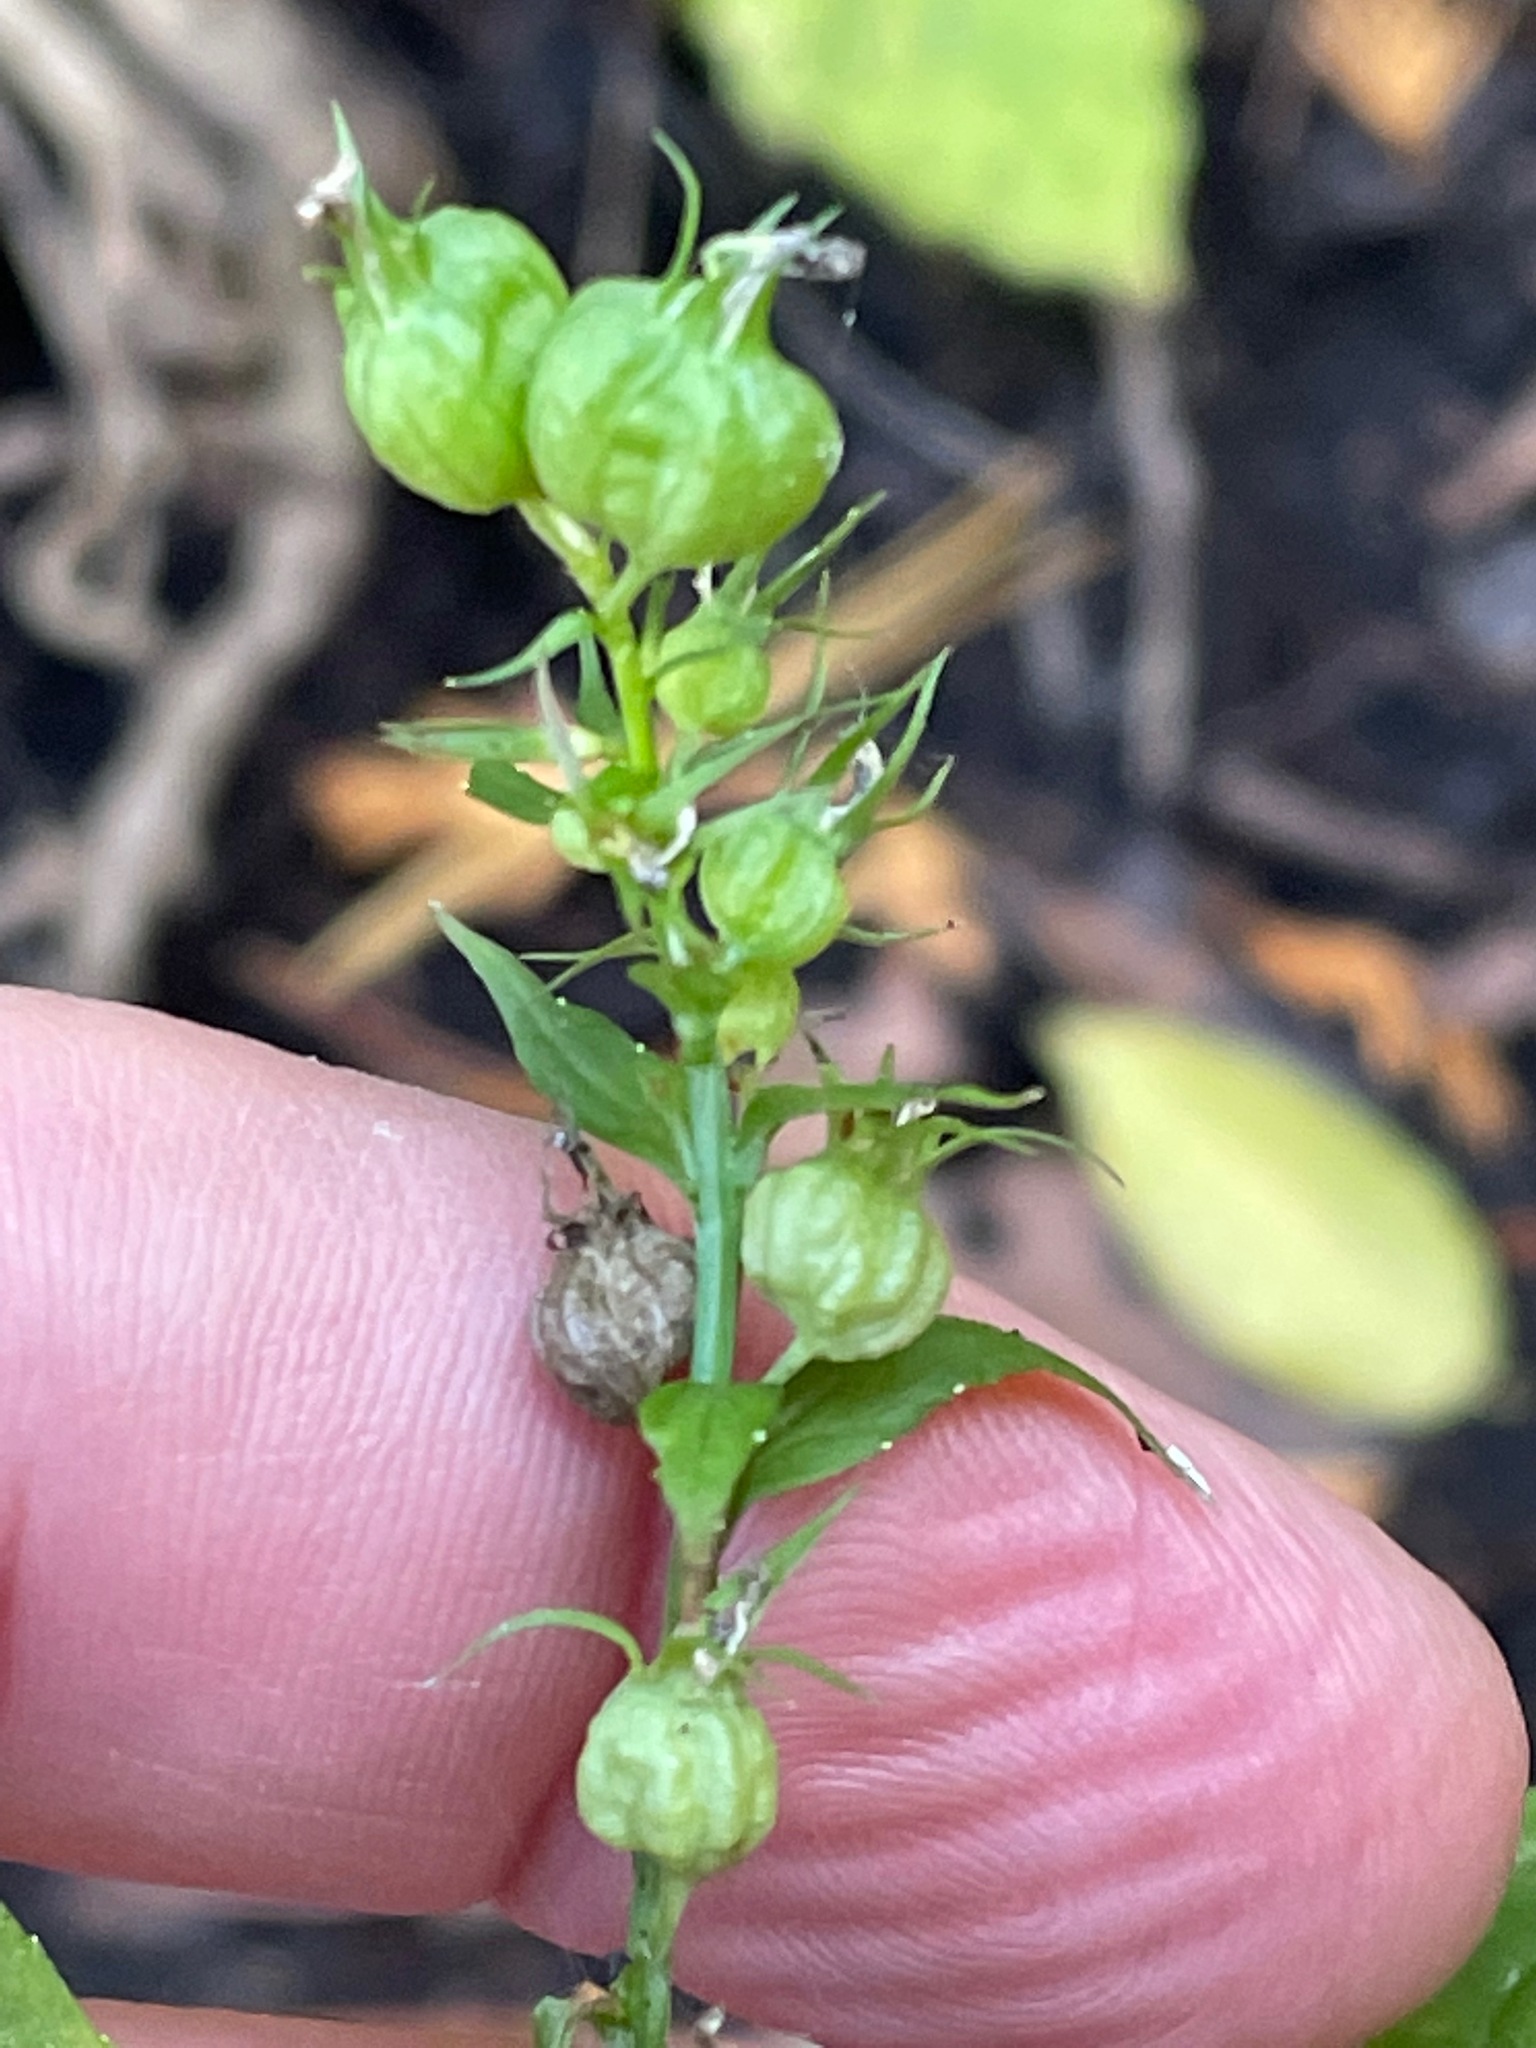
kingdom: Plantae
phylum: Tracheophyta
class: Magnoliopsida
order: Asterales
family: Campanulaceae
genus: Lobelia
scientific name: Lobelia inflata
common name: Indian tobacco
